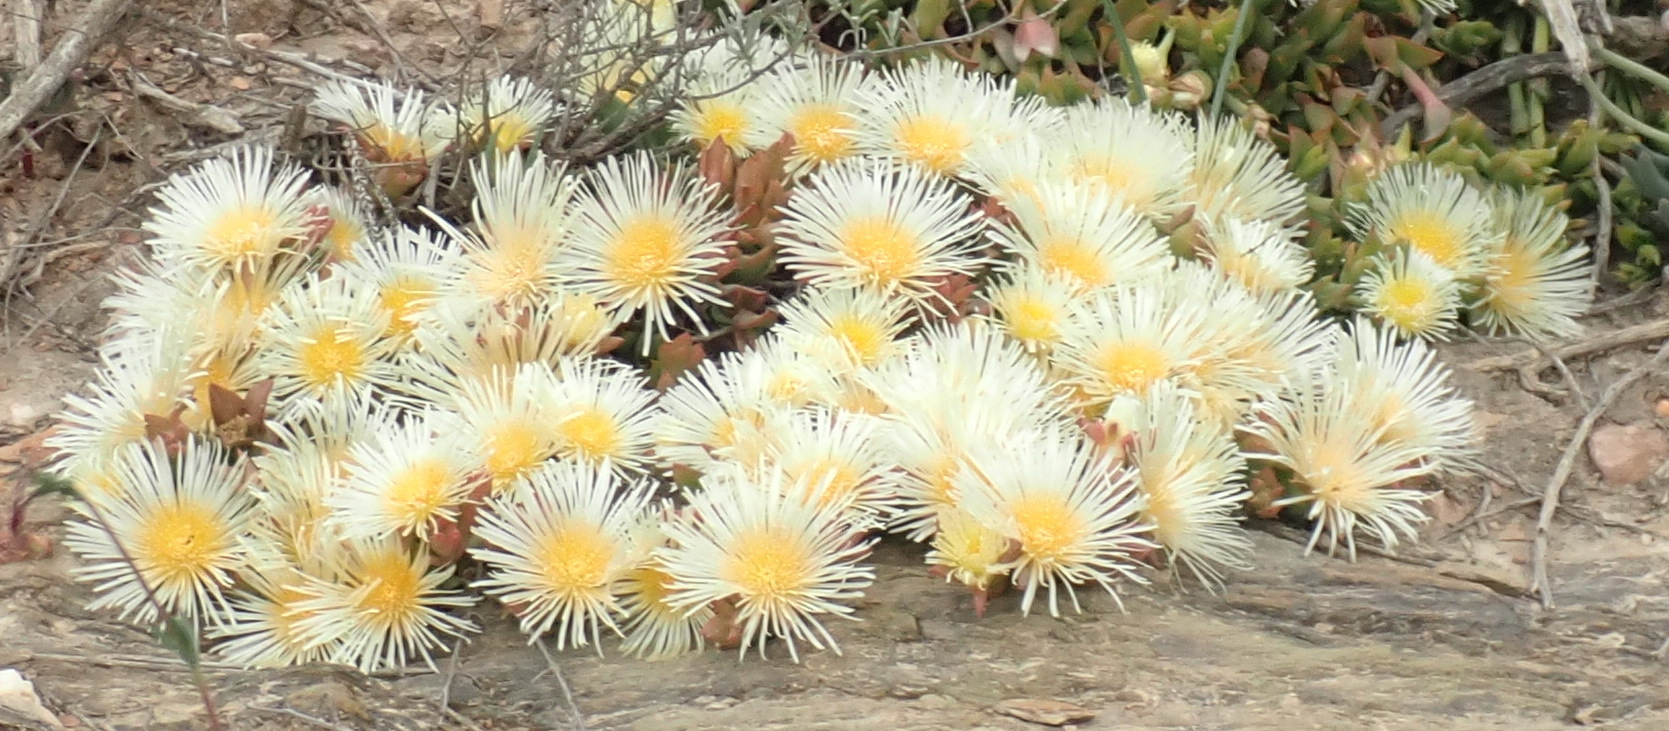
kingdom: Plantae
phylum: Tracheophyta
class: Magnoliopsida
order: Caryophyllales
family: Aizoaceae
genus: Mesembryanthemum
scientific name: Mesembryanthemum tortuosum
